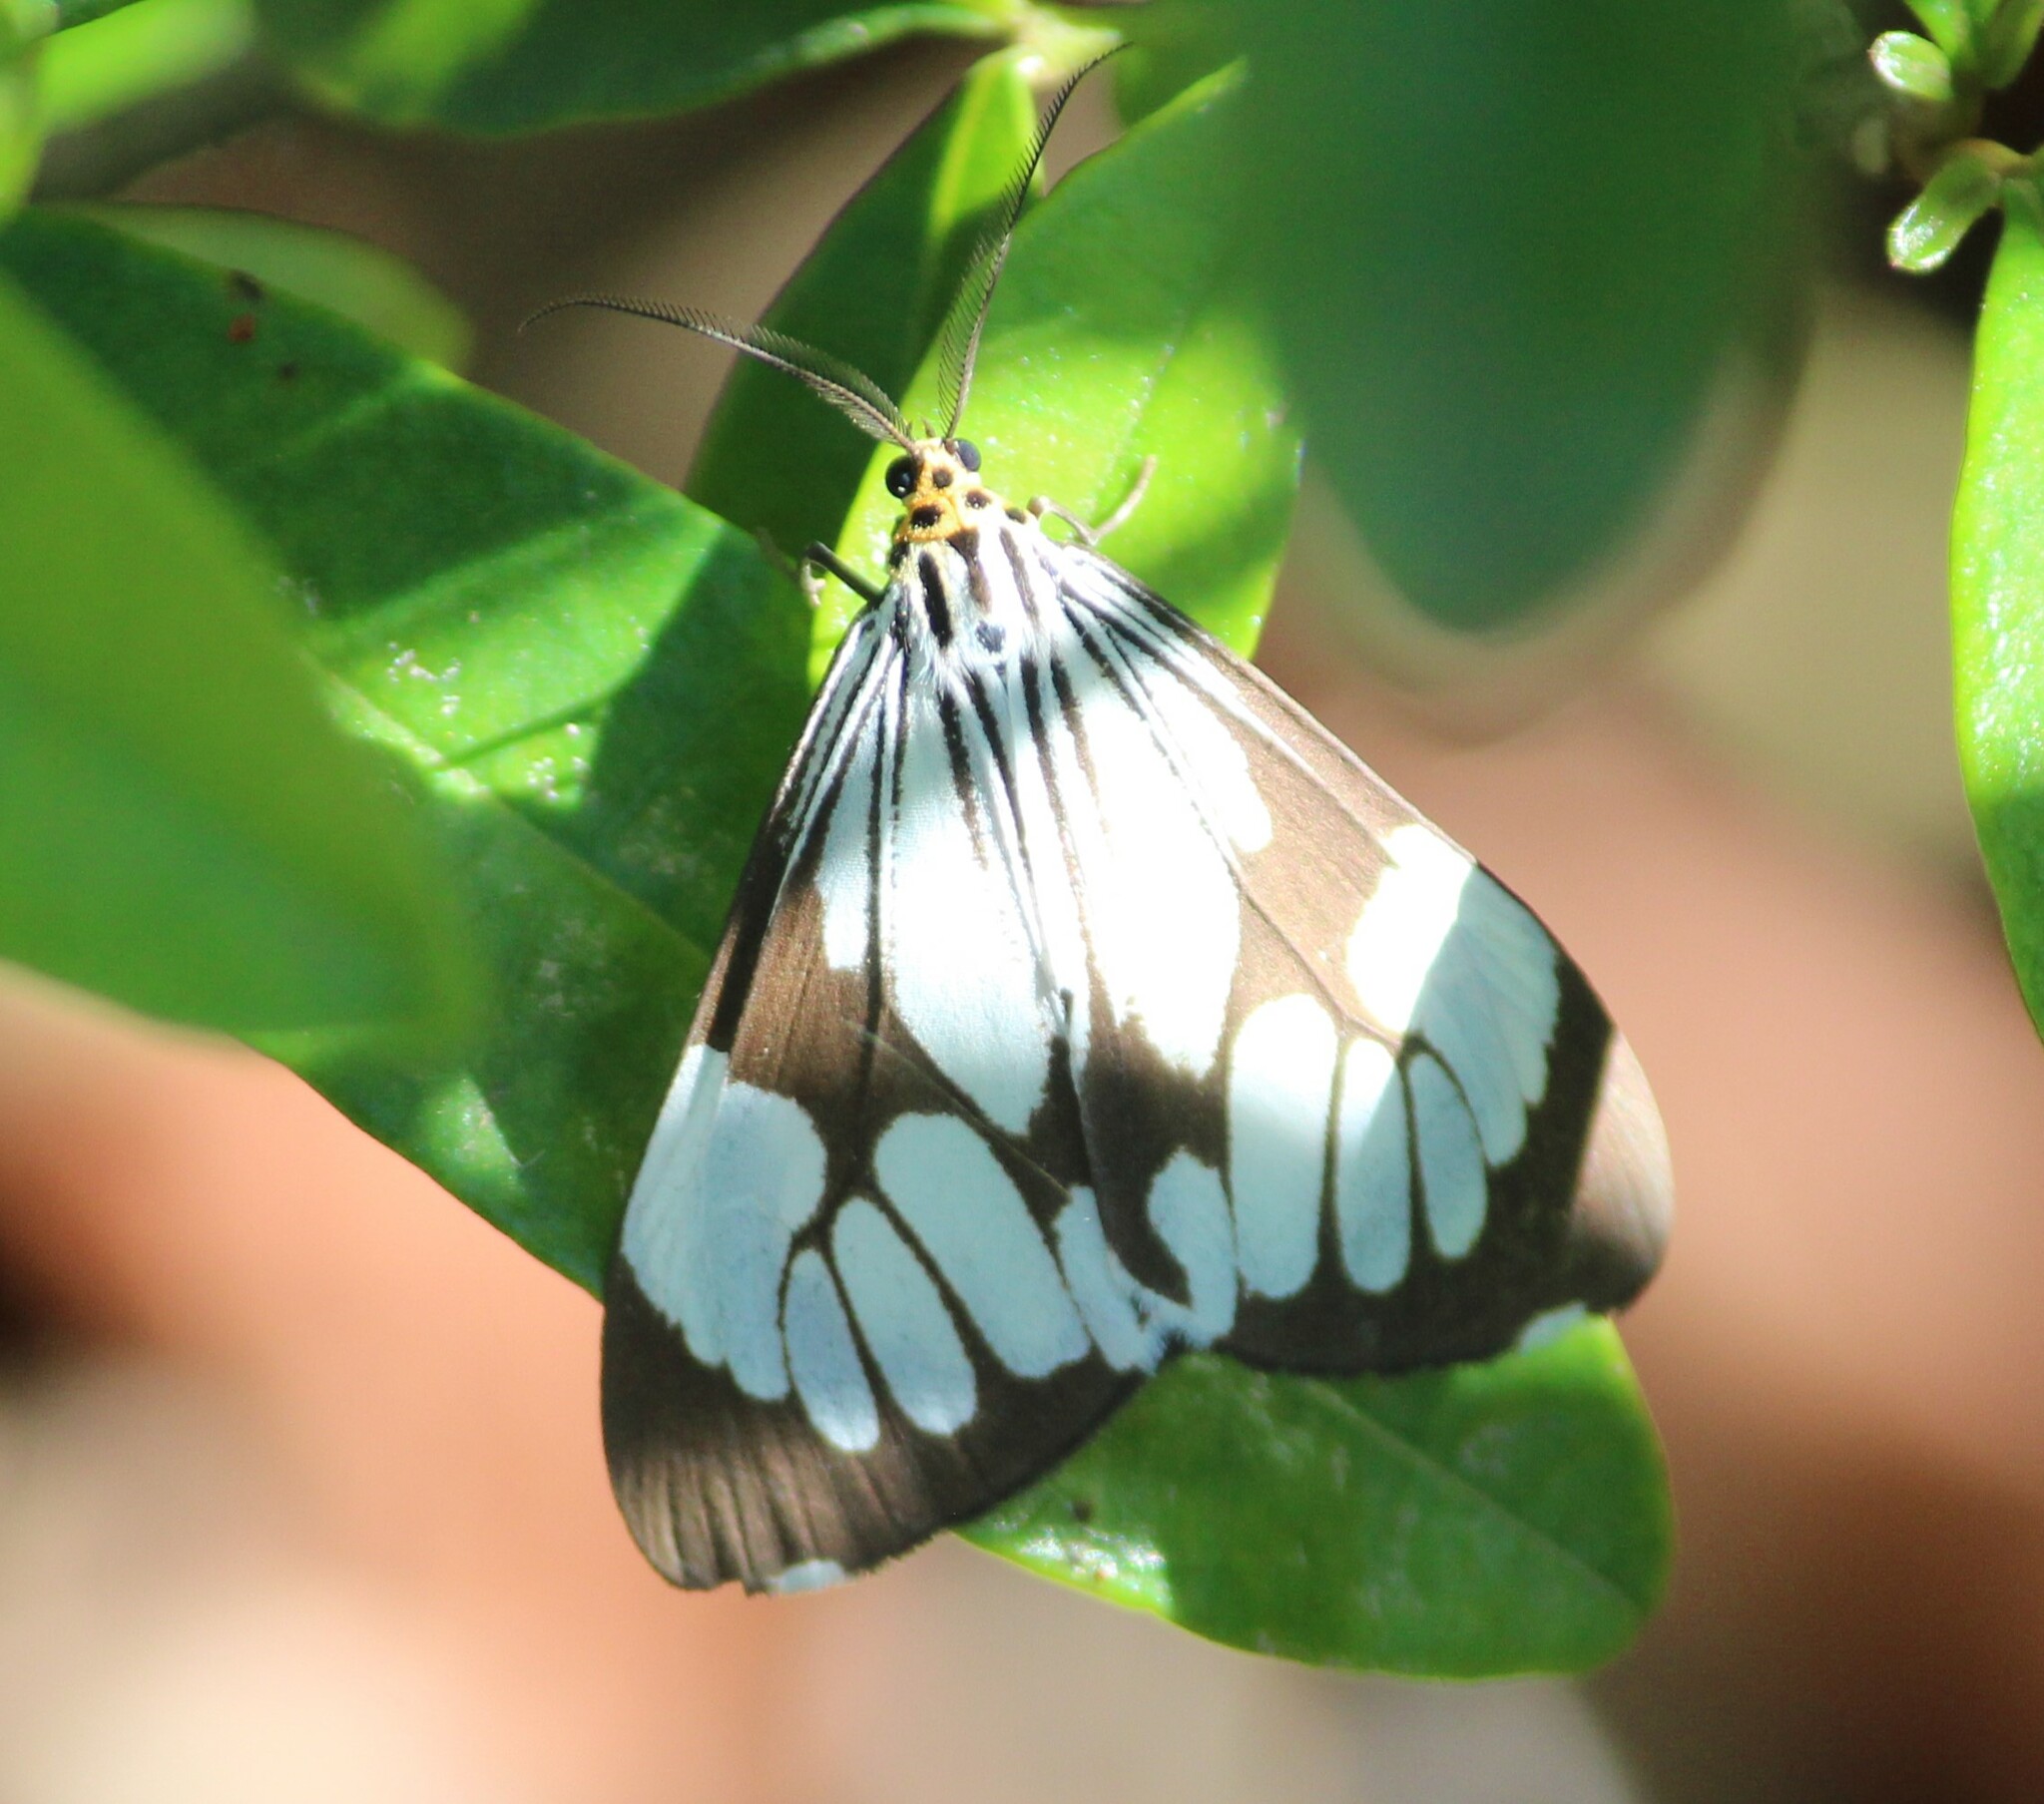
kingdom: Animalia
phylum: Arthropoda
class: Insecta
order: Lepidoptera
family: Erebidae
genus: Nyctemera
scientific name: Nyctemera coleta
